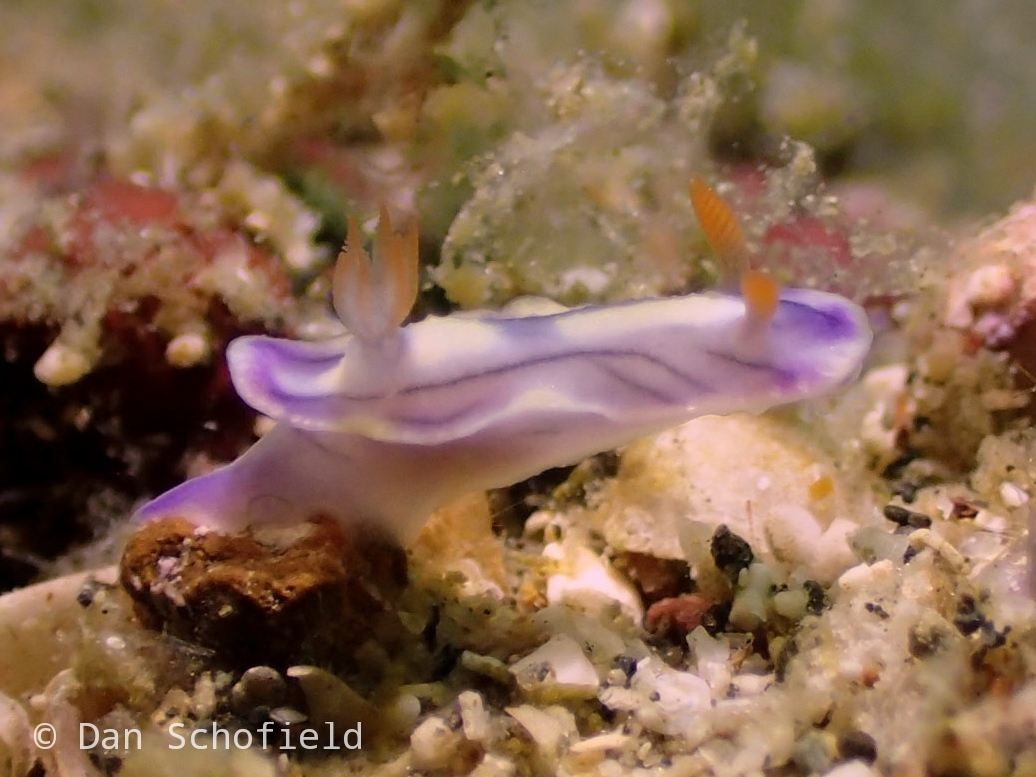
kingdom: Animalia
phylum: Mollusca
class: Gastropoda
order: Nudibranchia
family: Chromodorididae
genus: Hypselodoris
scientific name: Hypselodoris zephyra
